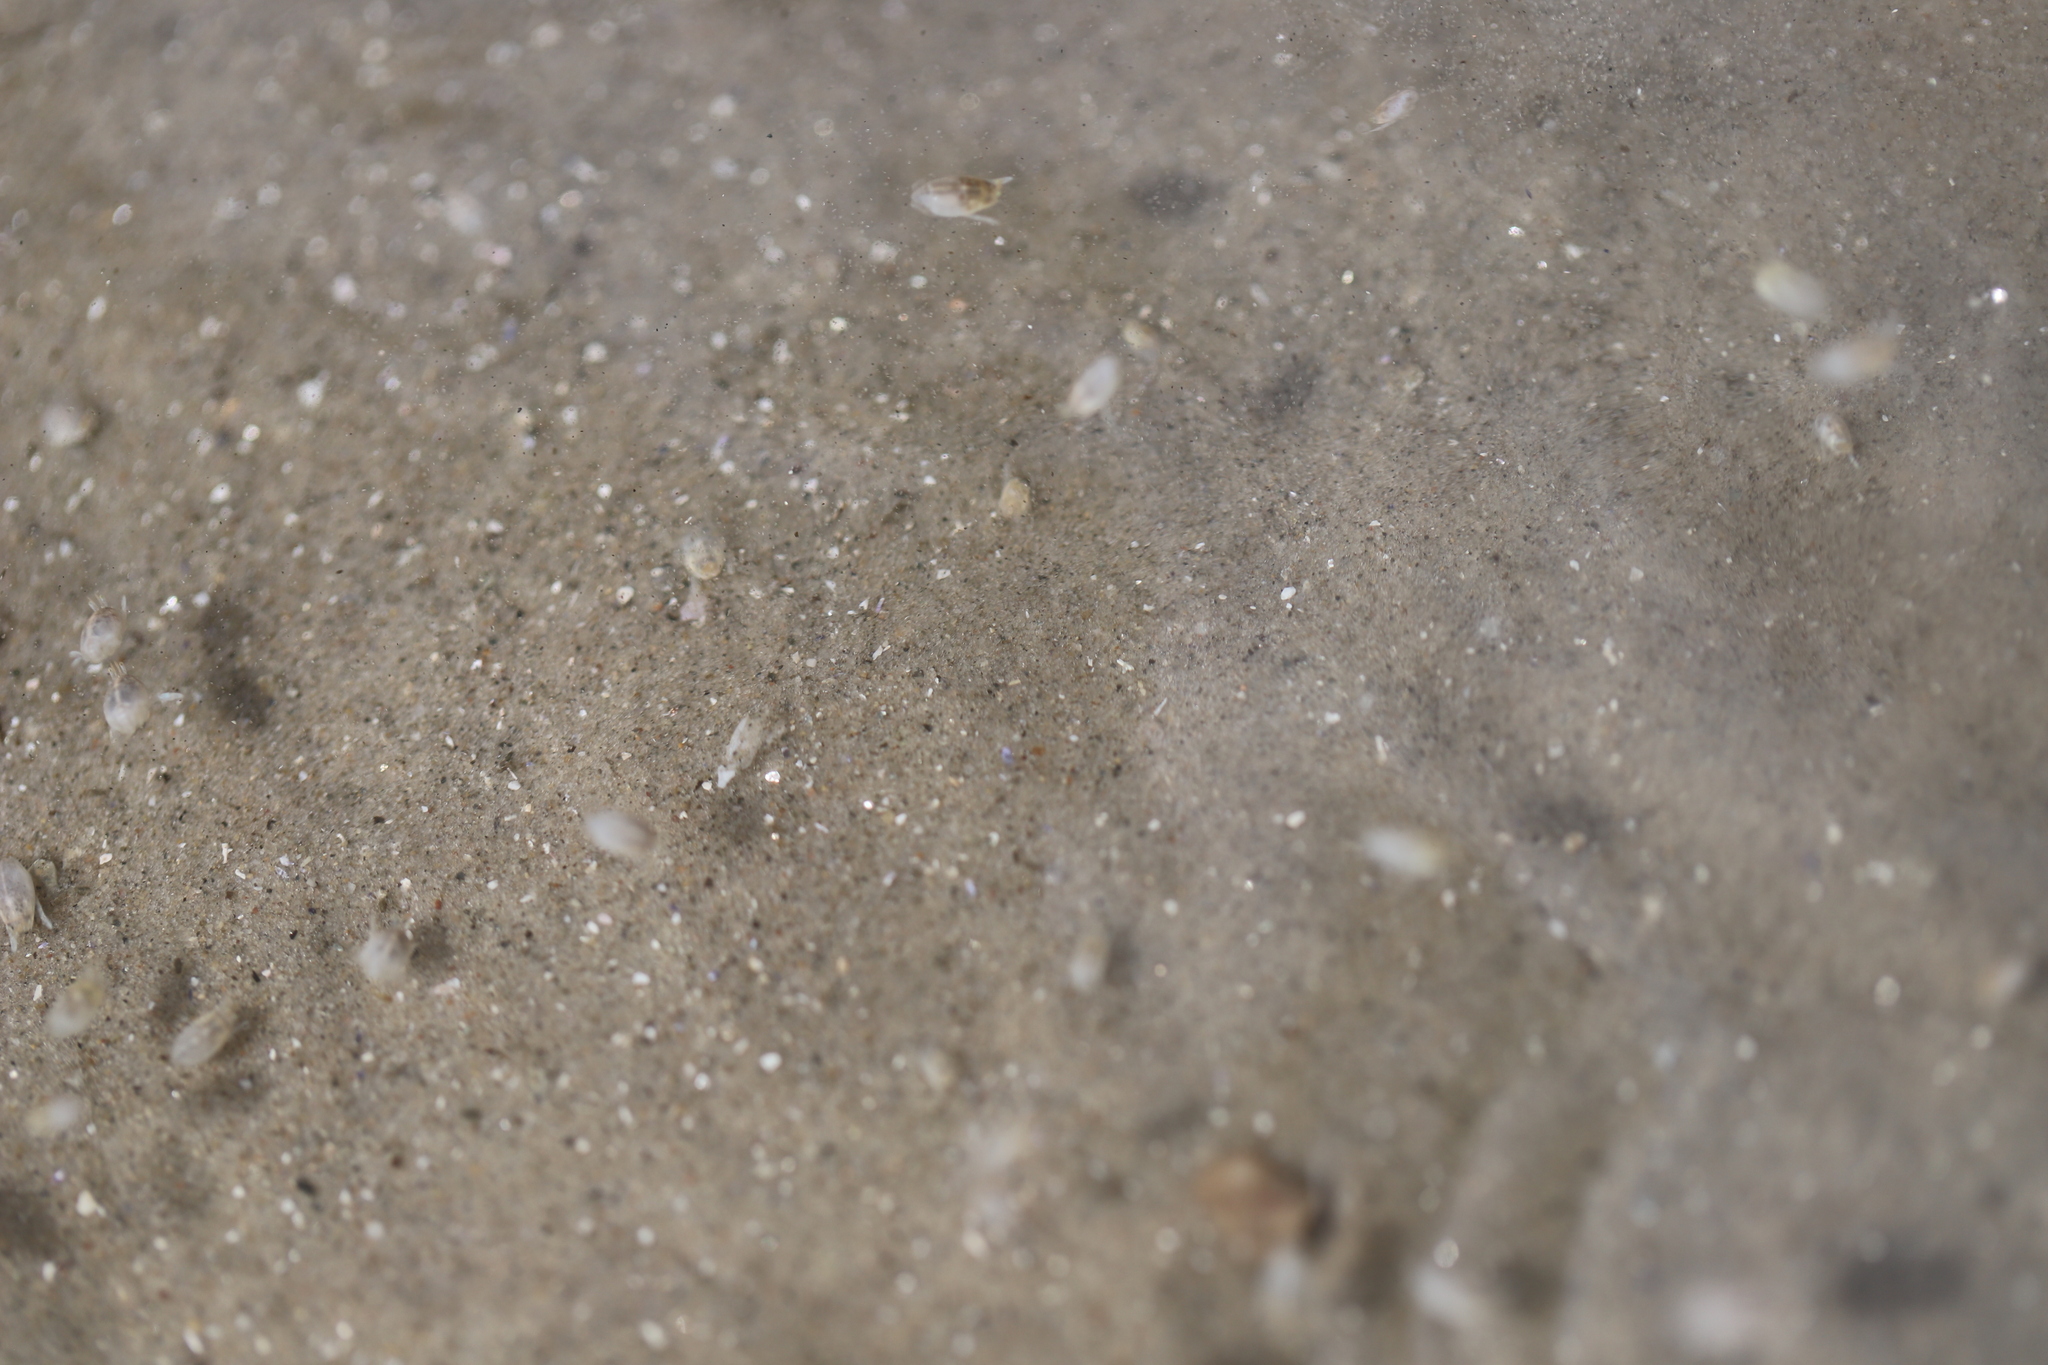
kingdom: Animalia
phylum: Arthropoda
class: Malacostraca
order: Decapoda
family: Hippidae
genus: Emerita
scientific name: Emerita talpoida
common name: Atlantic sand crab
